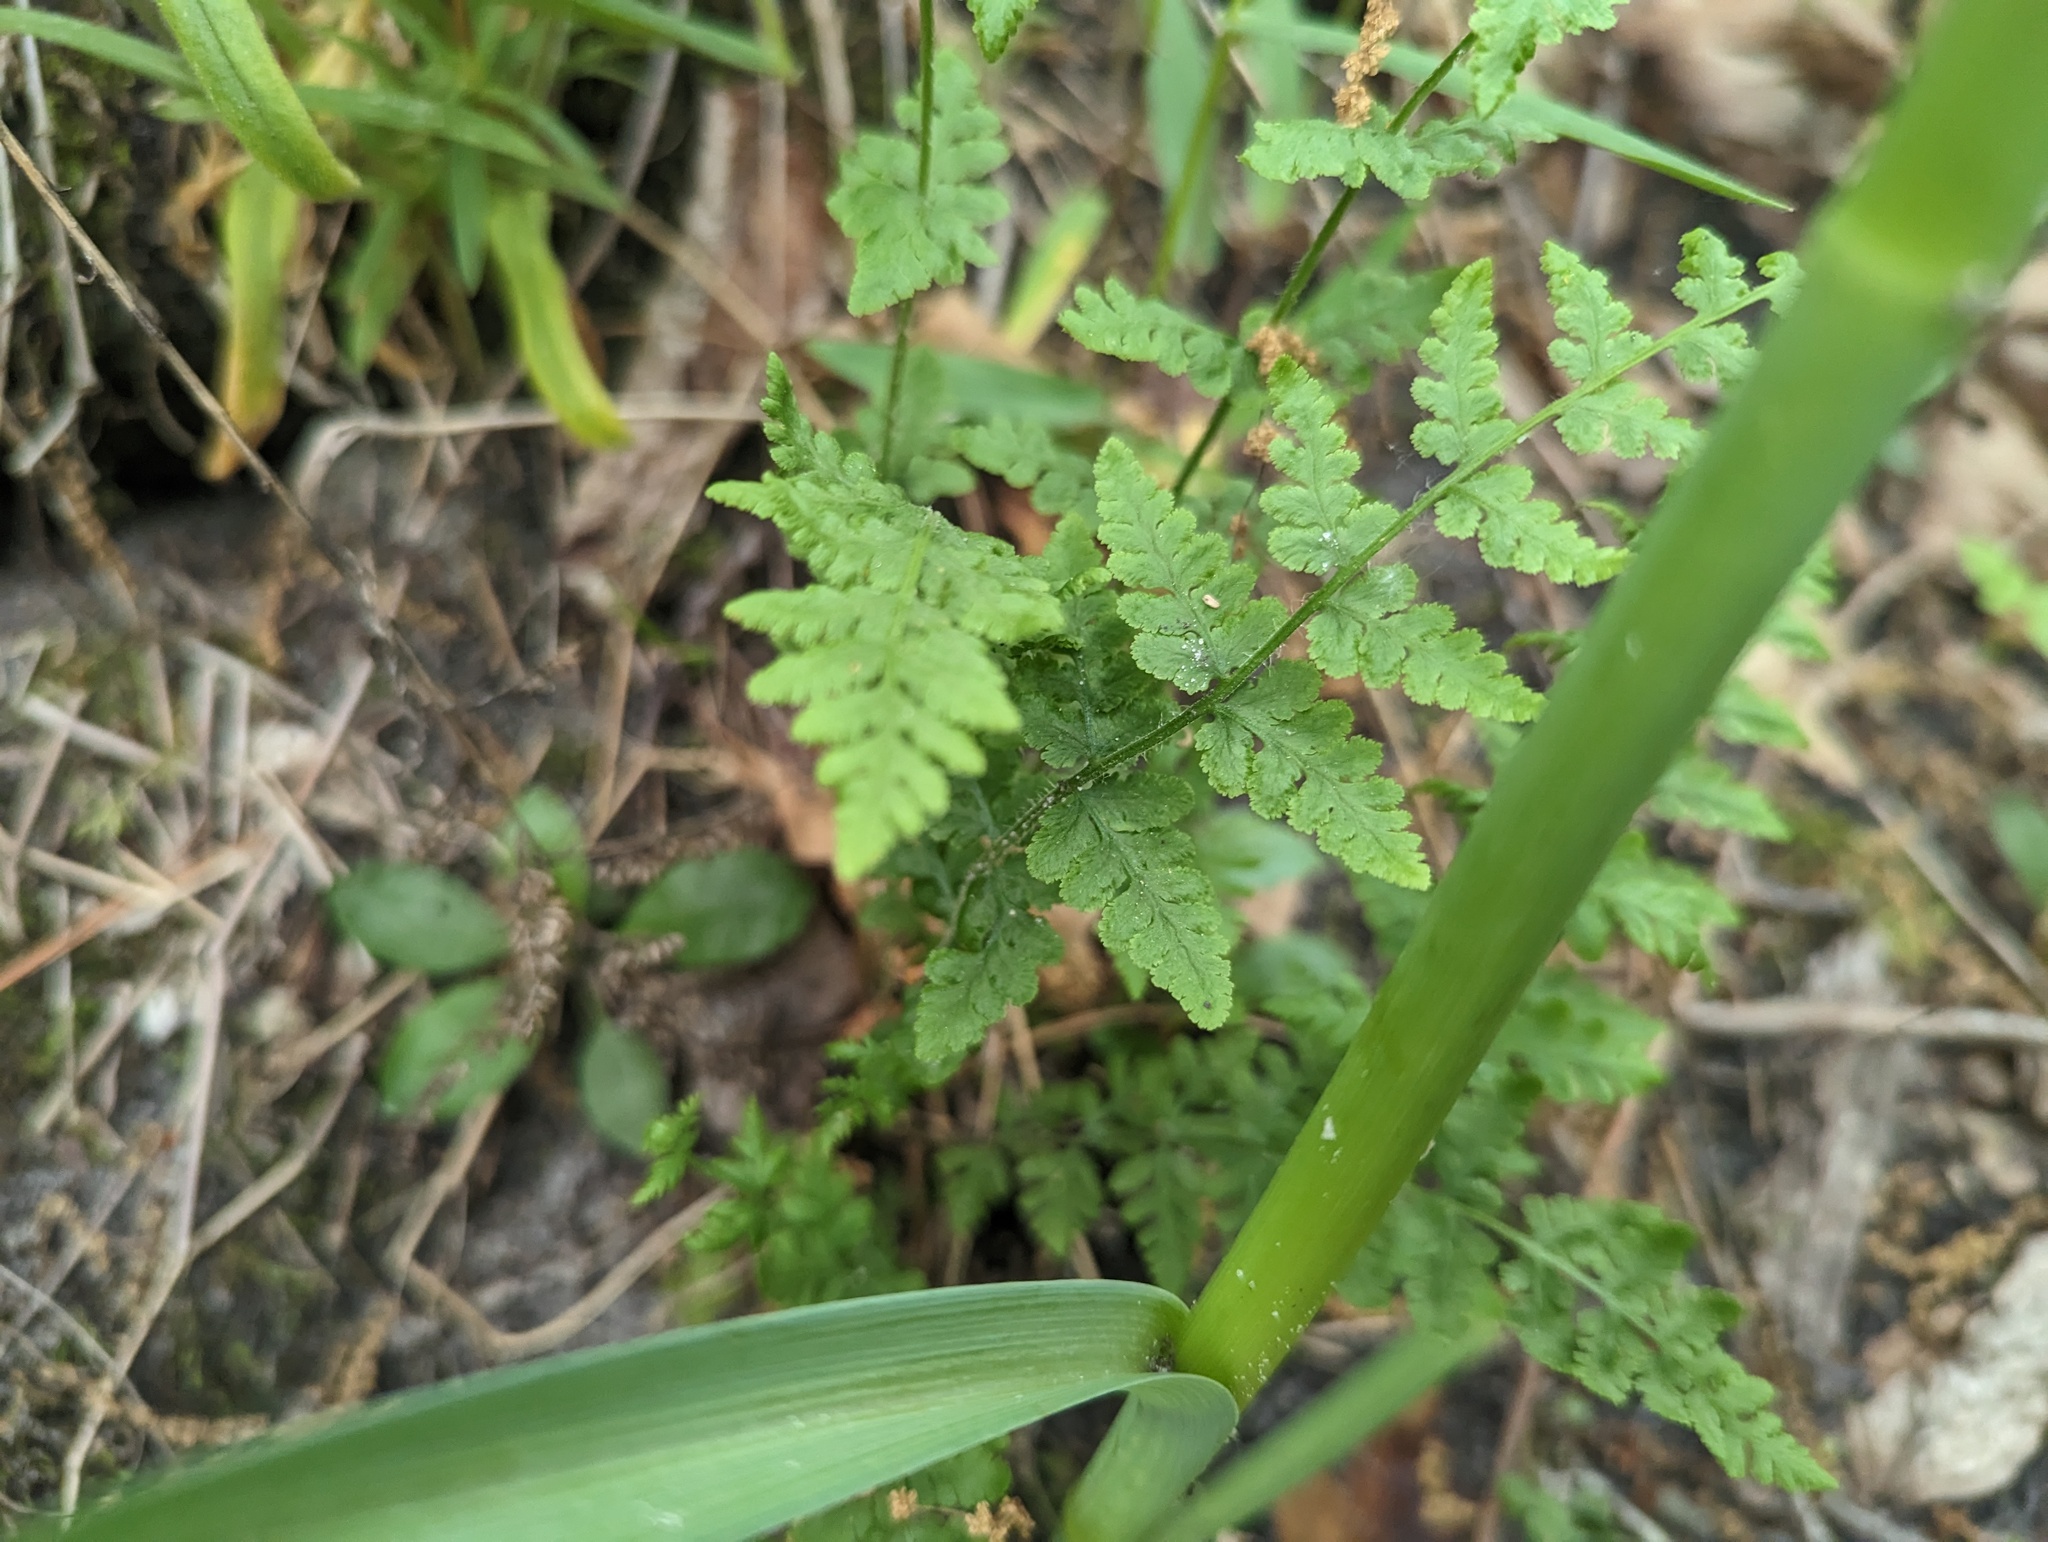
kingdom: Plantae
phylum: Tracheophyta
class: Polypodiopsida
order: Polypodiales
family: Woodsiaceae
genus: Physematium
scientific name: Physematium obtusum
